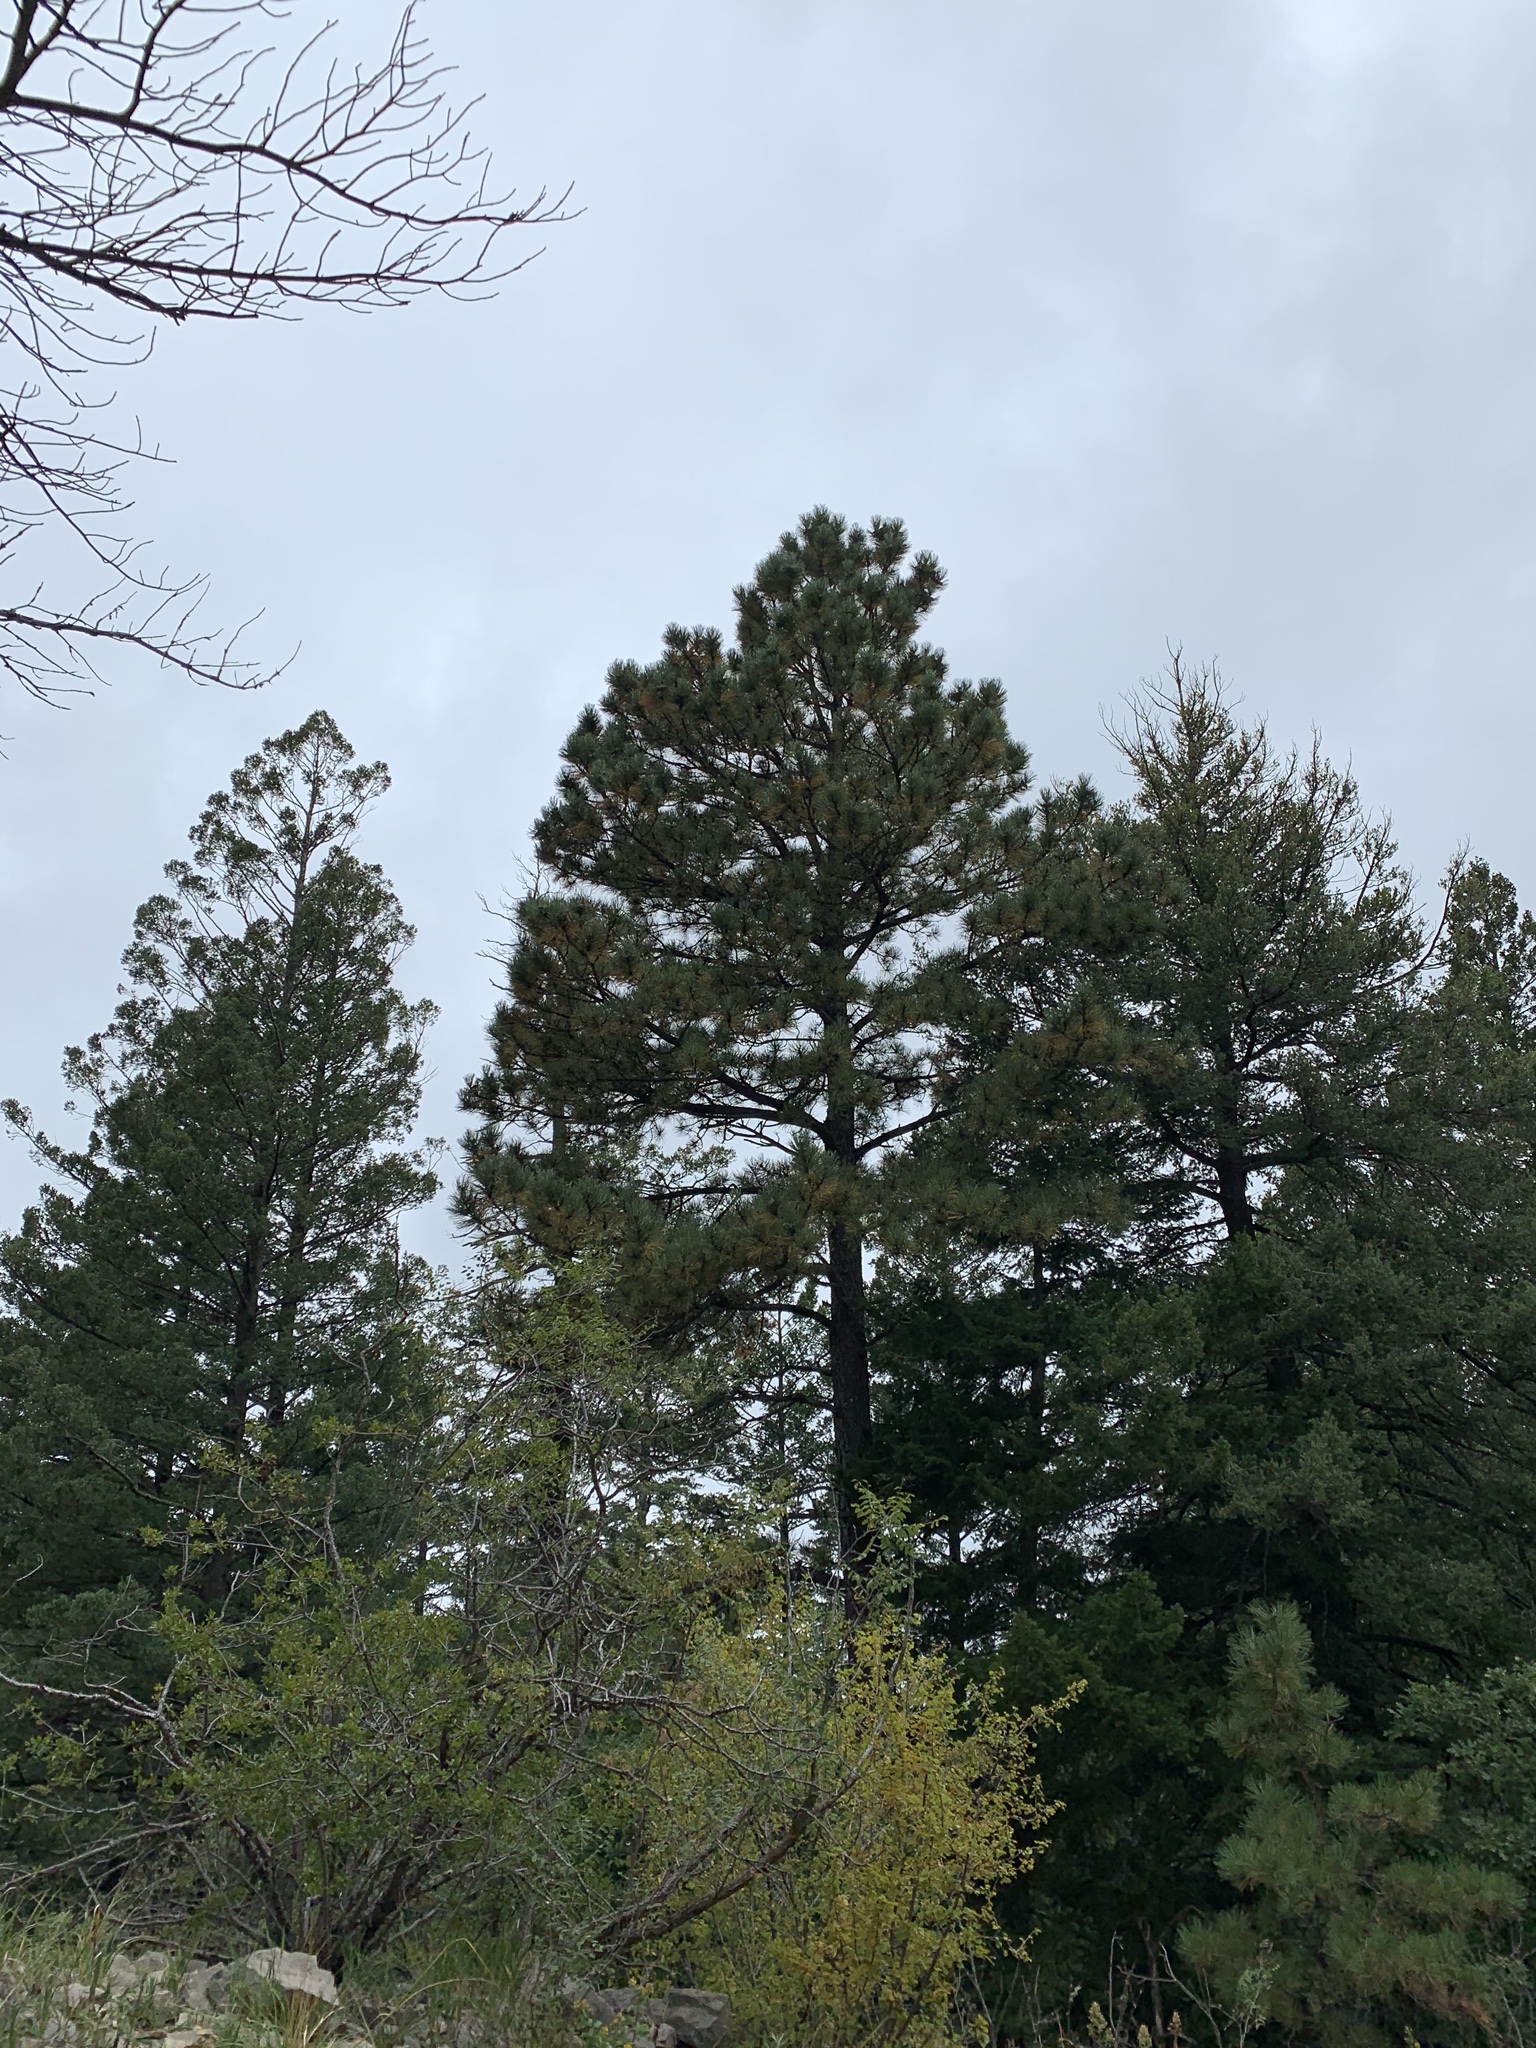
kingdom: Plantae
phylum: Tracheophyta
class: Pinopsida
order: Pinales
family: Pinaceae
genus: Pinus
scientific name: Pinus ponderosa
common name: Western yellow-pine
